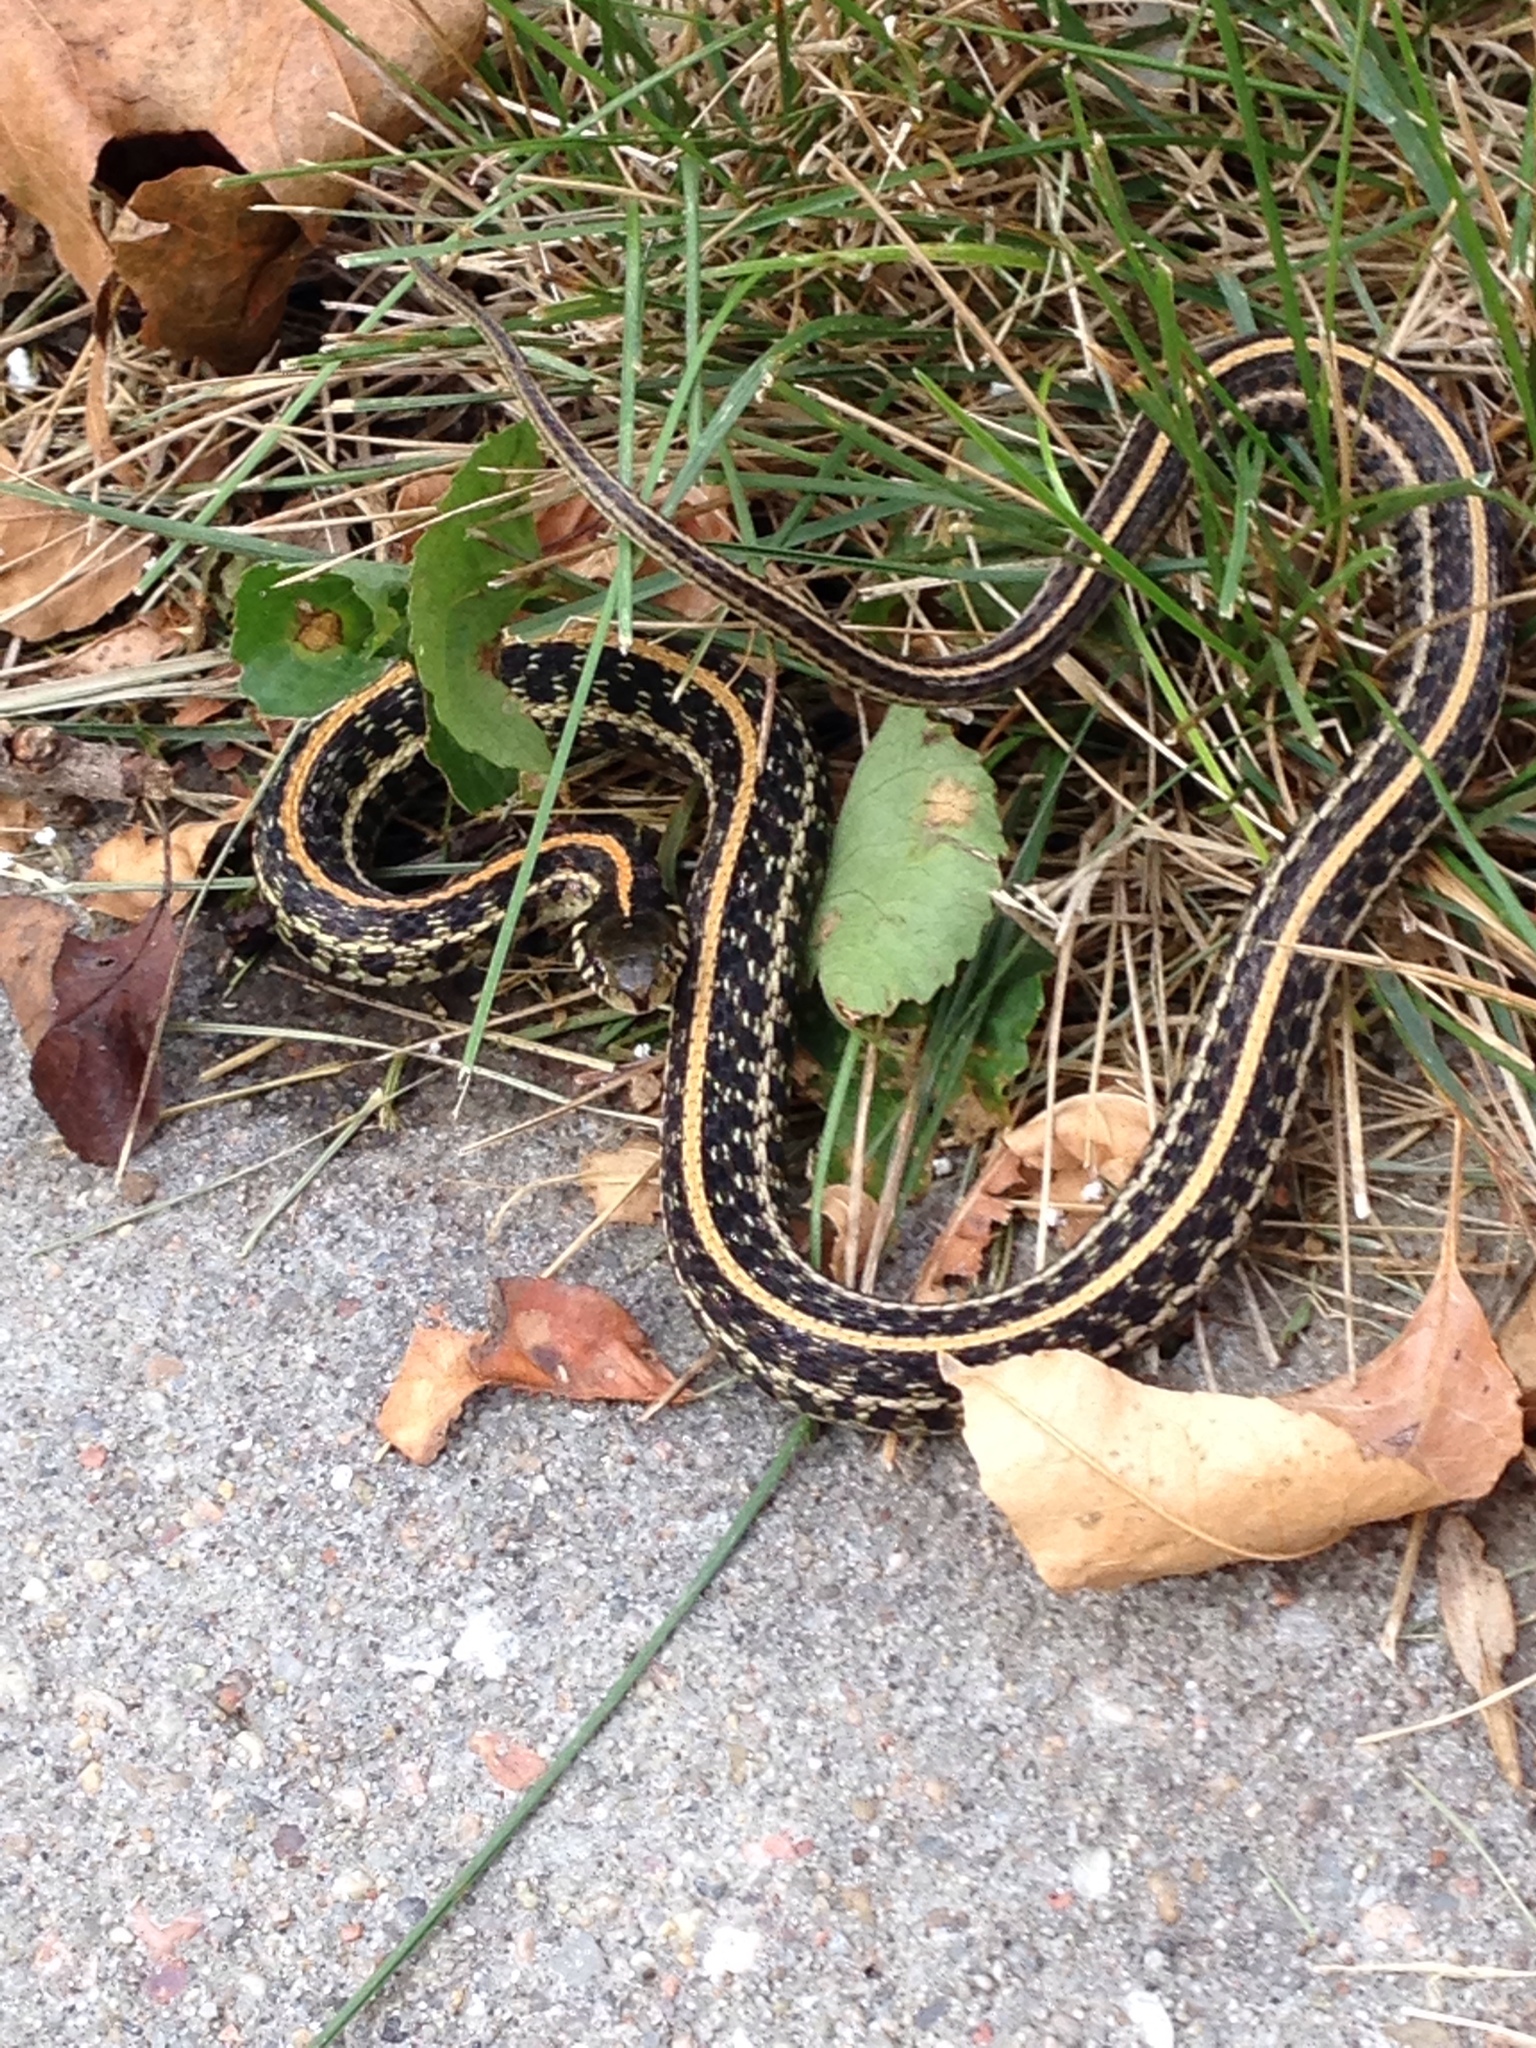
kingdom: Animalia
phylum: Chordata
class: Squamata
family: Colubridae
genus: Thamnophis
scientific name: Thamnophis radix
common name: Plains garter snake
